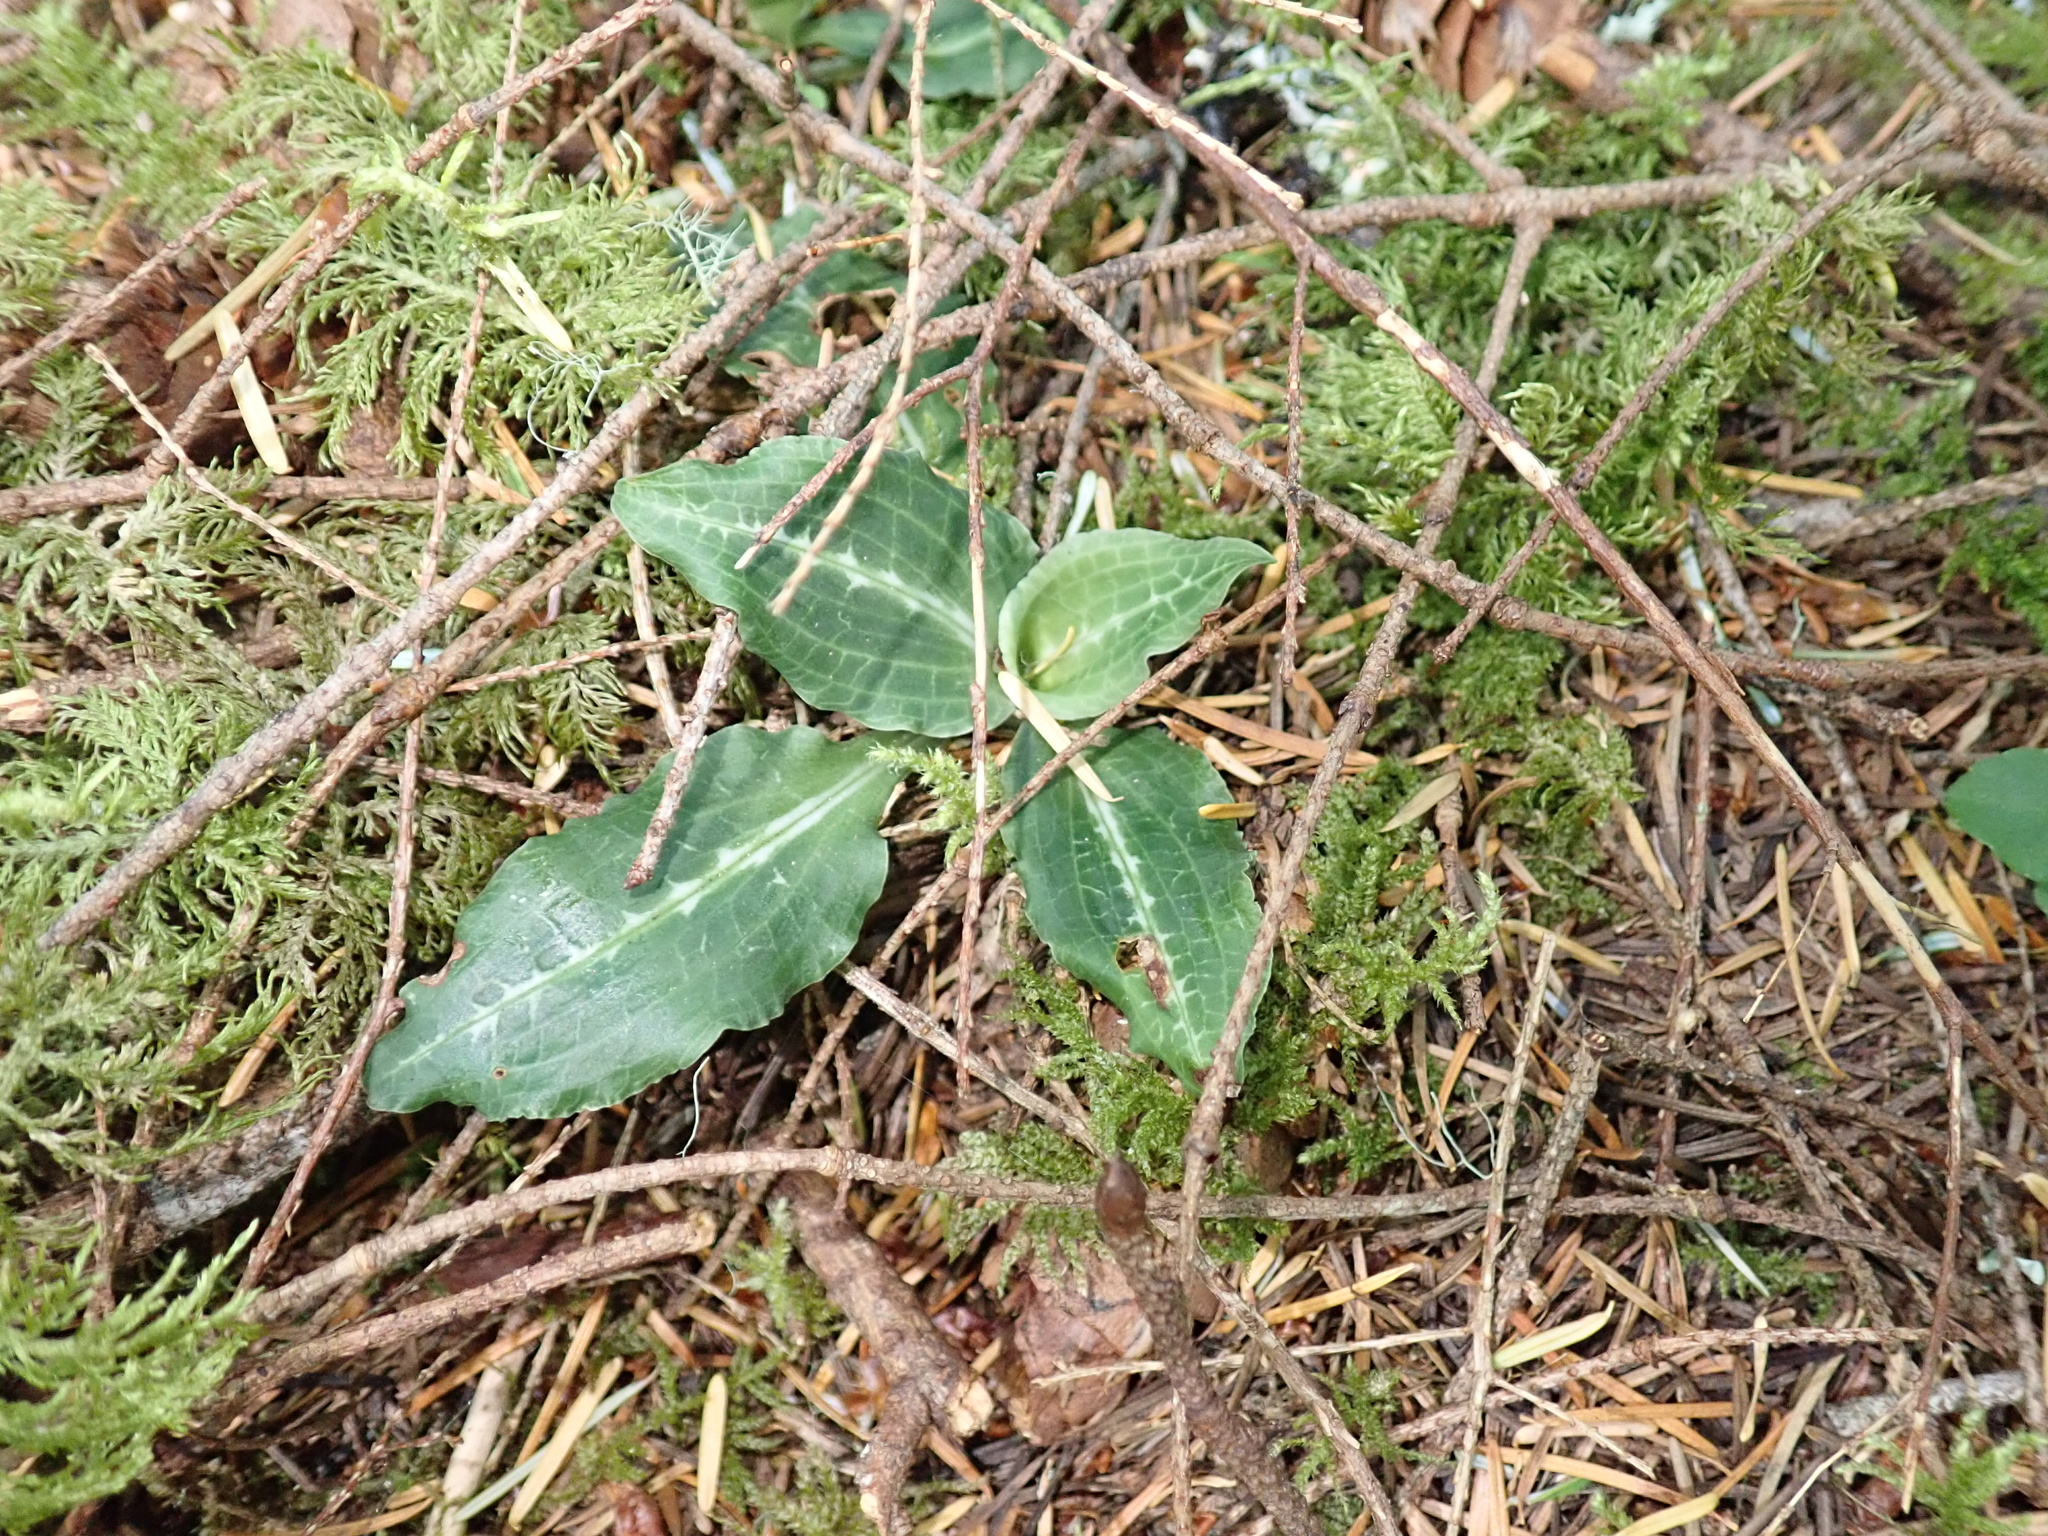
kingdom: Plantae
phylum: Tracheophyta
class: Liliopsida
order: Asparagales
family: Orchidaceae
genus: Goodyera
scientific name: Goodyera oblongifolia
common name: Giant rattlesnake-plantain
